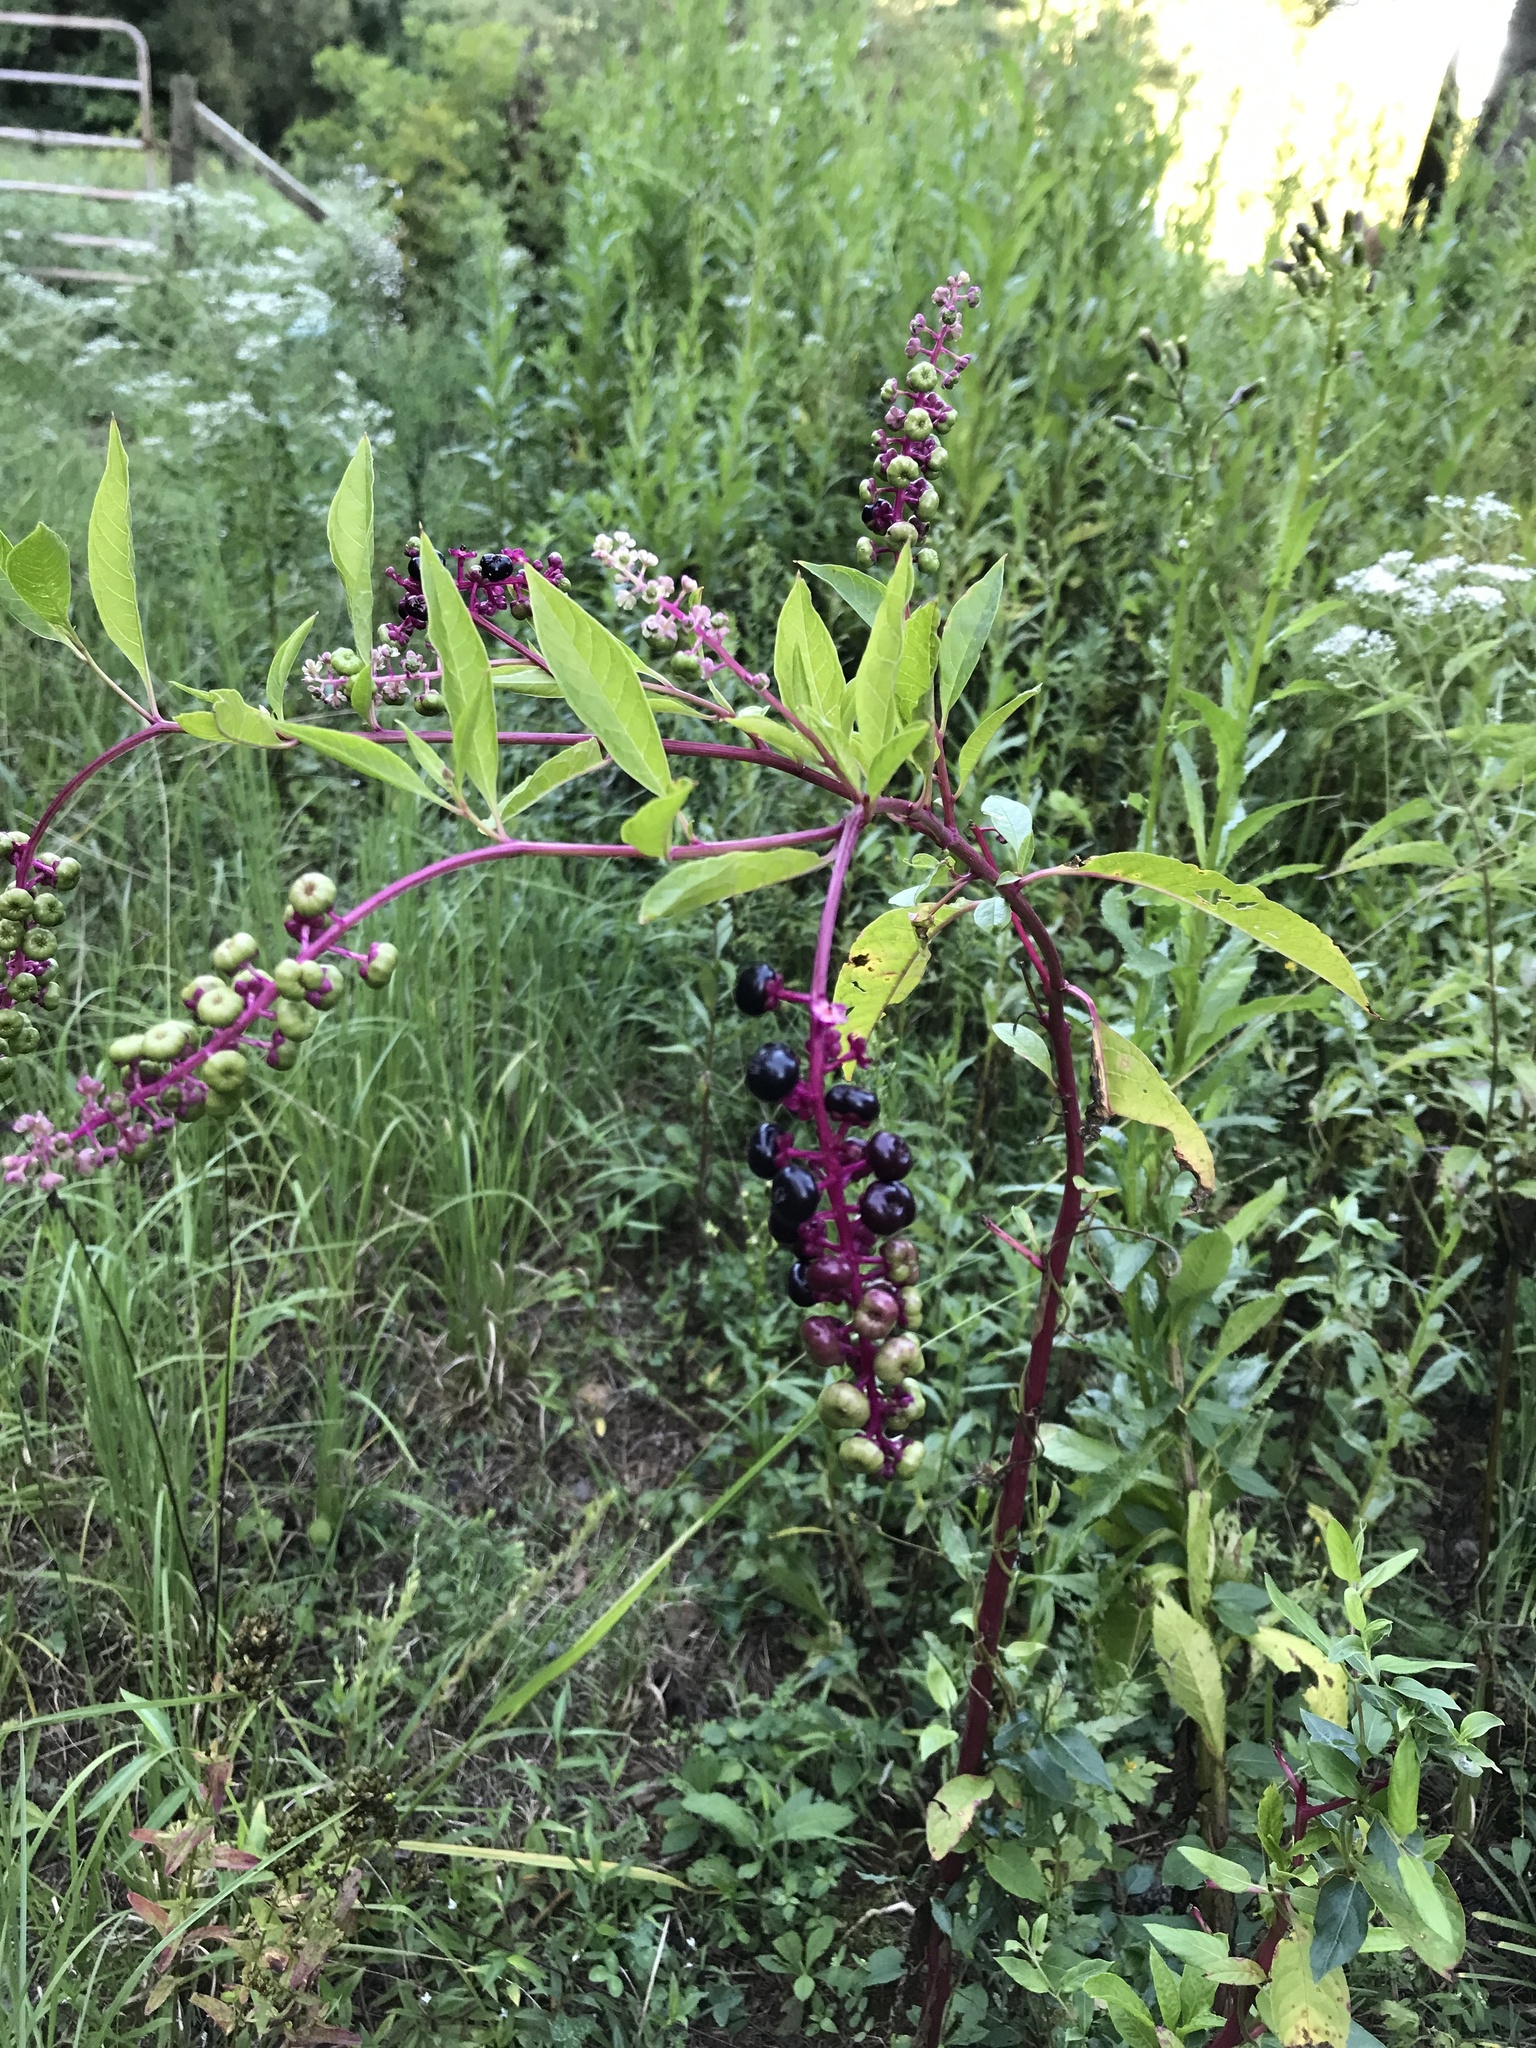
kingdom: Plantae
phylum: Tracheophyta
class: Magnoliopsida
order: Caryophyllales
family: Phytolaccaceae
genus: Phytolacca
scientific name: Phytolacca americana
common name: American pokeweed
